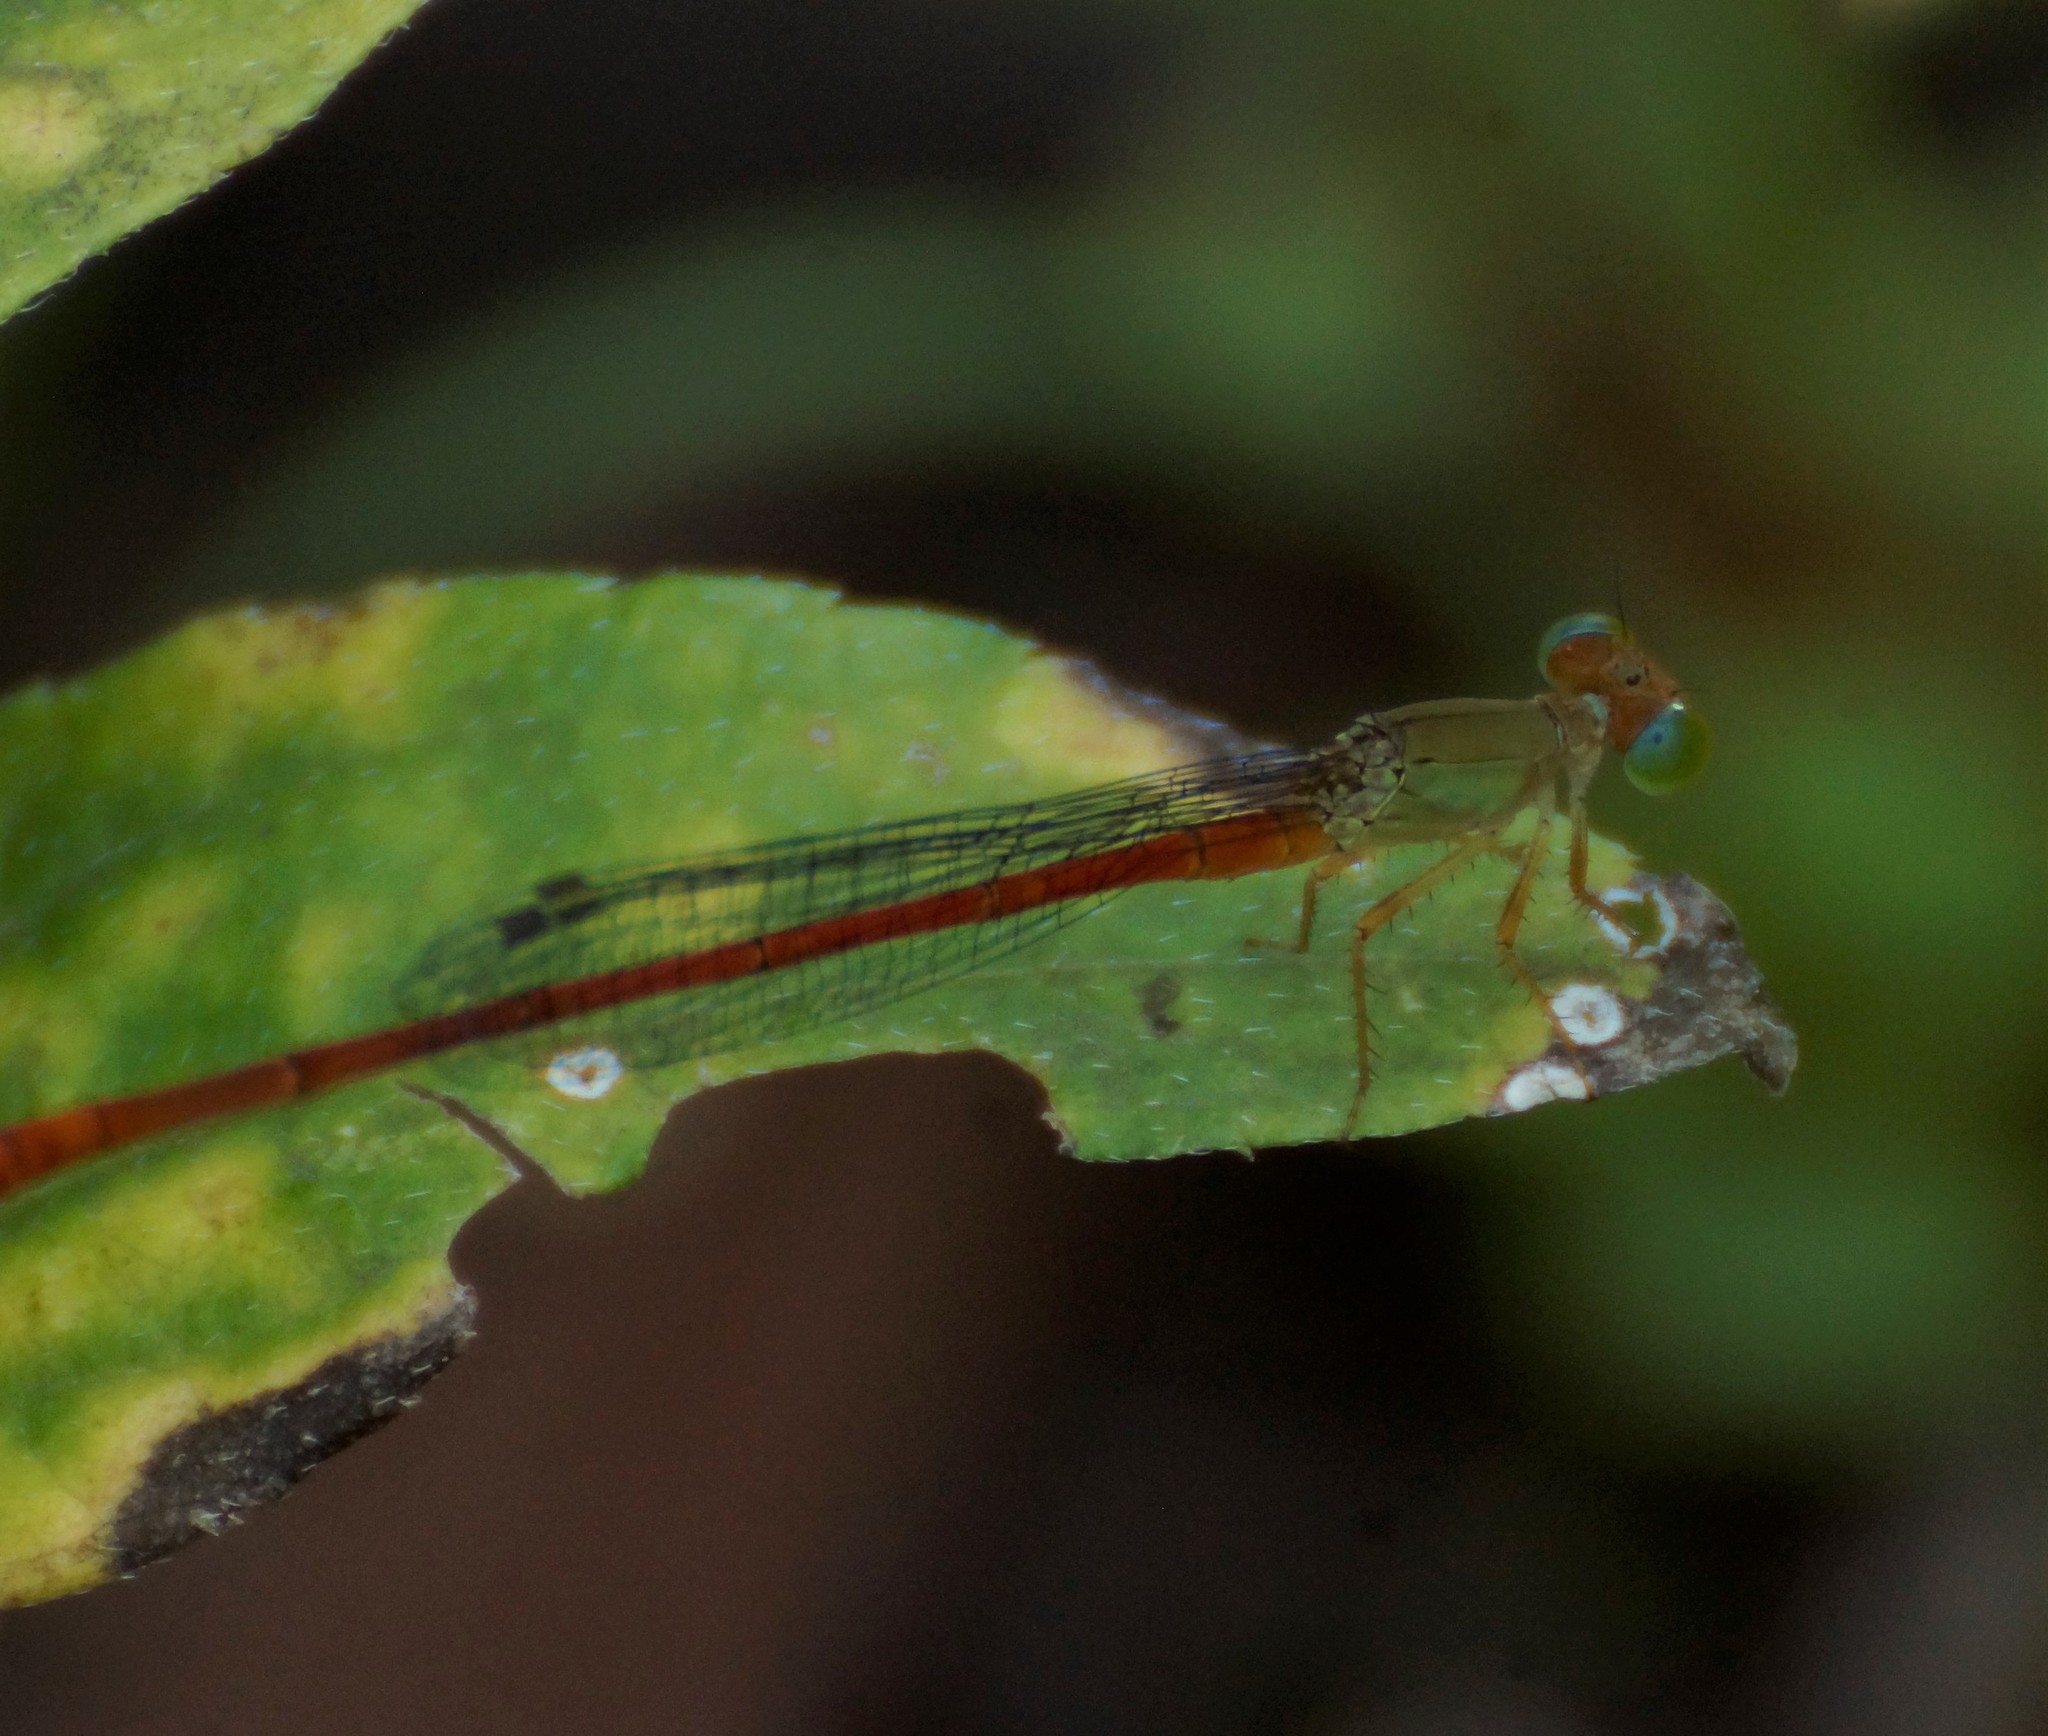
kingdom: Animalia
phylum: Arthropoda
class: Insecta
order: Odonata
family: Coenagrionidae
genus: Ceriagrion
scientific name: Ceriagrion aeruginosum
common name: Redtail
